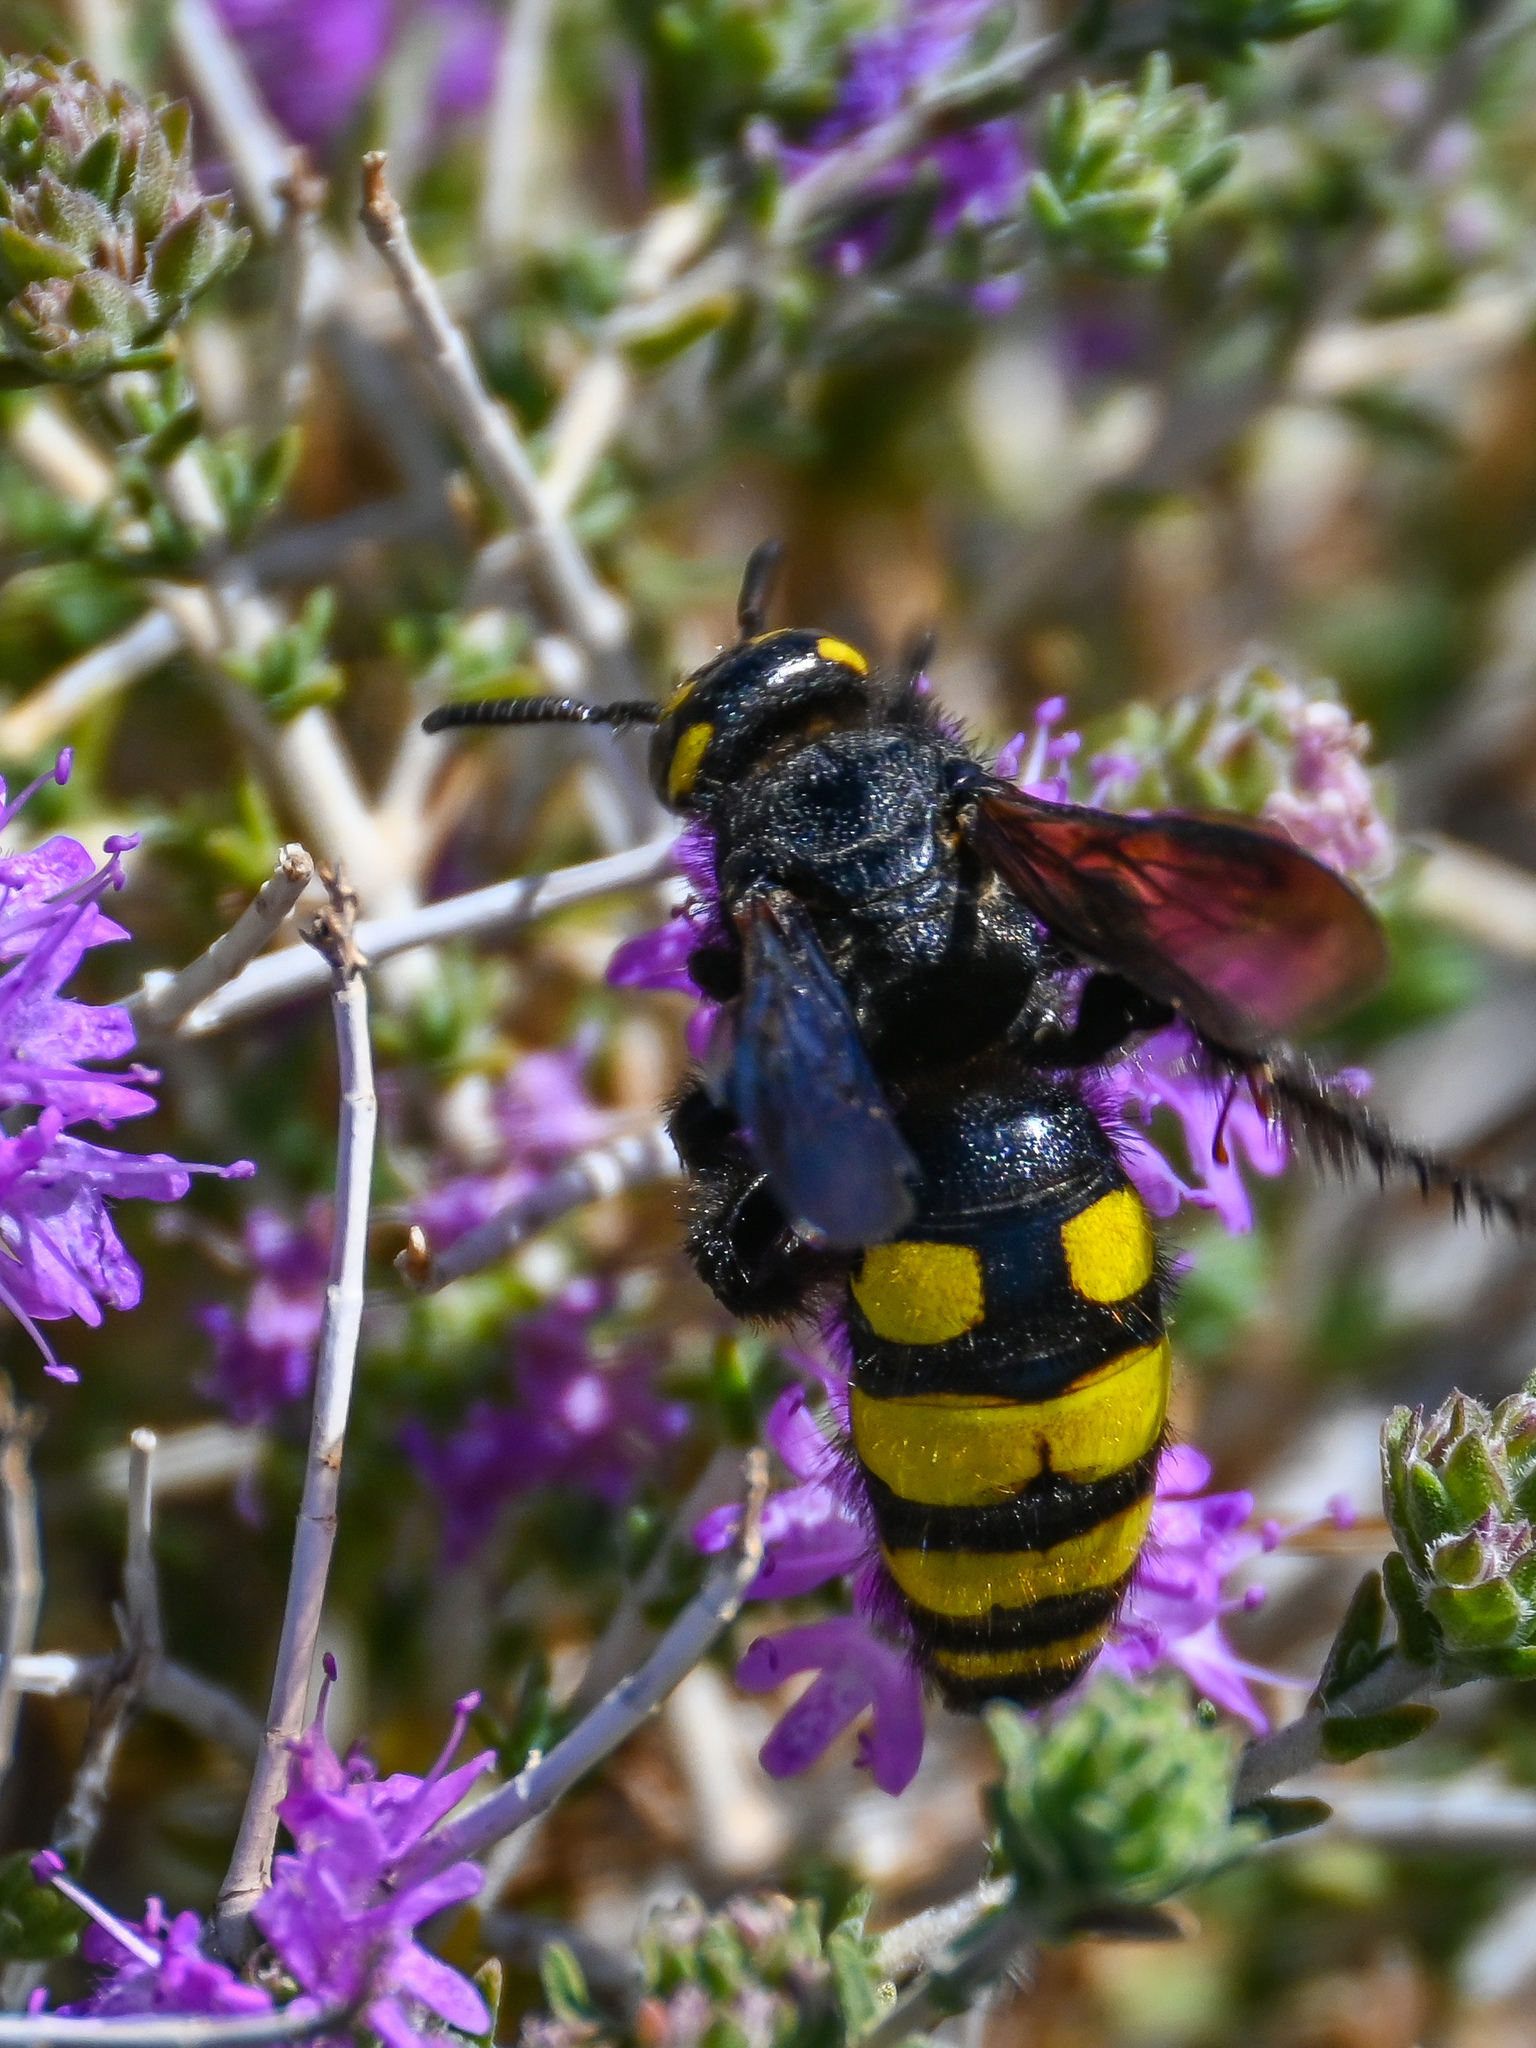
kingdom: Animalia
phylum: Arthropoda
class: Insecta
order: Hymenoptera
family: Vespidae
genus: Vespa
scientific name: Vespa sexmaculata
